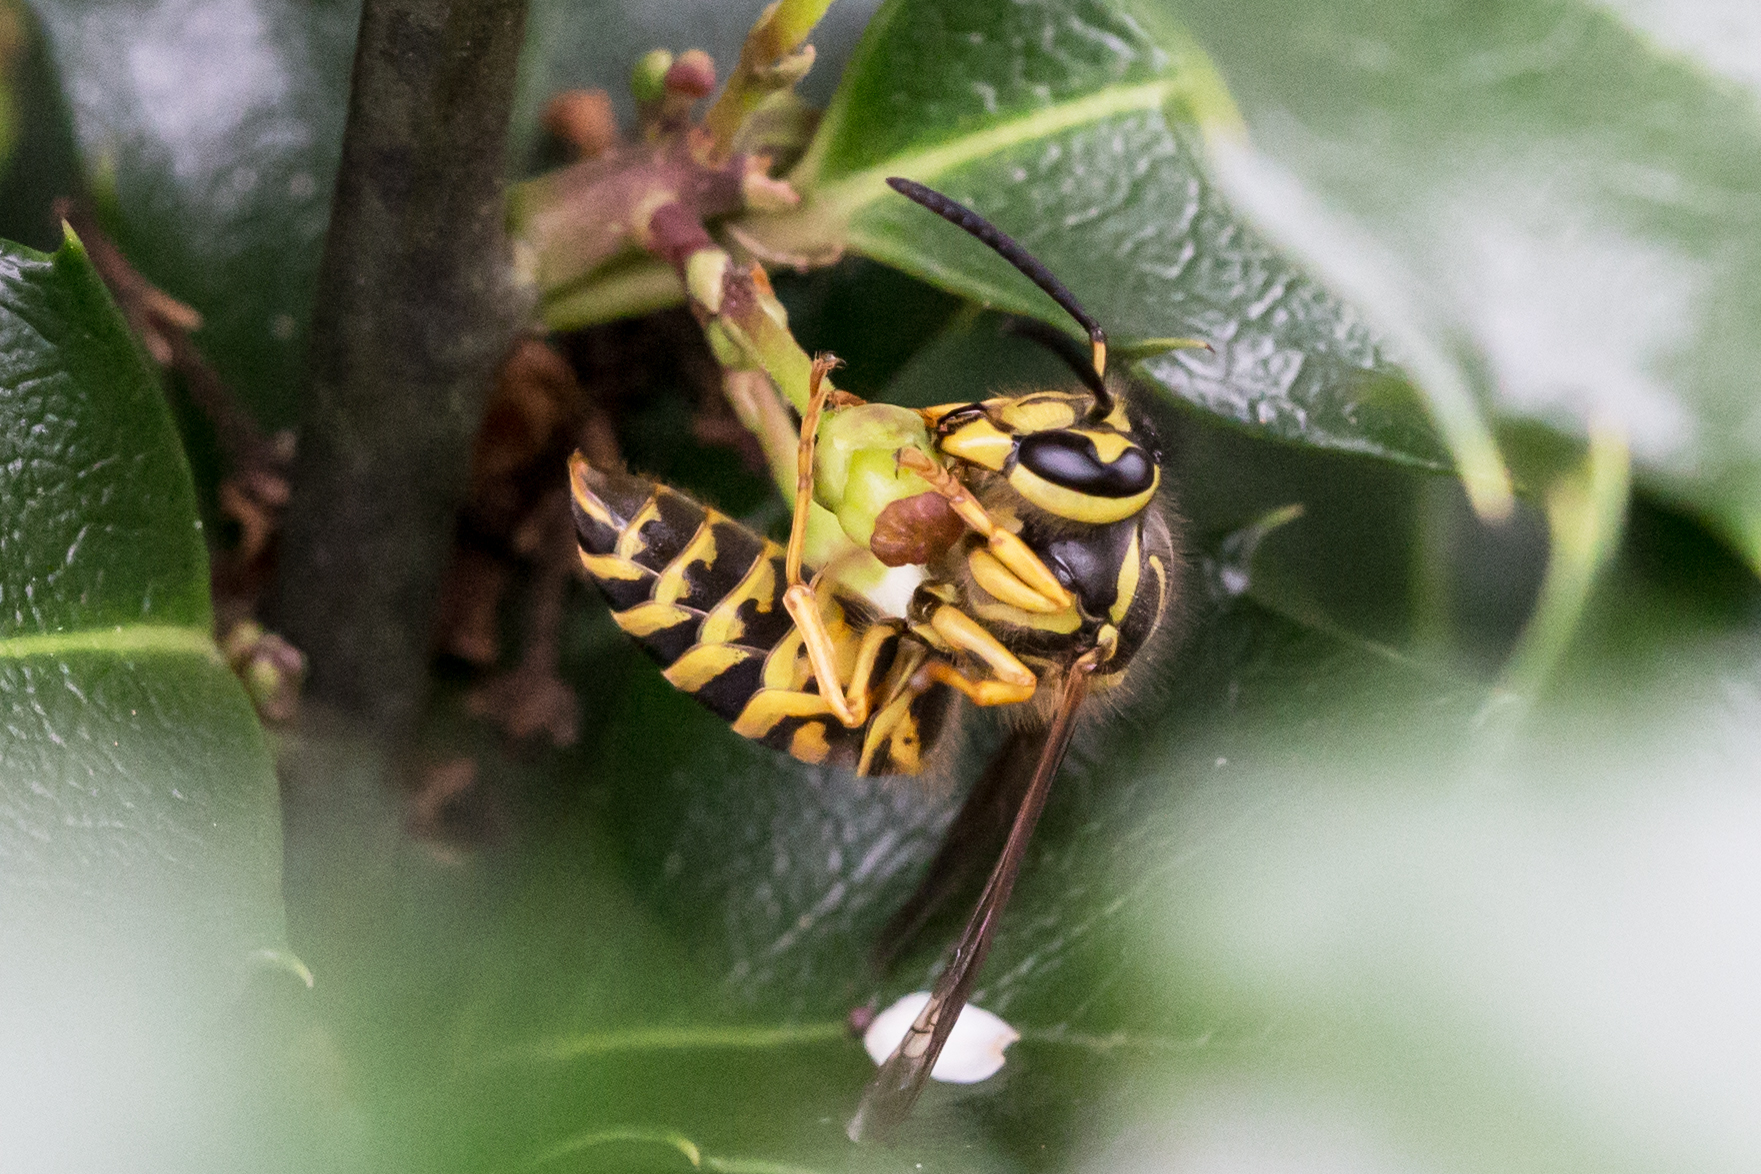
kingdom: Animalia
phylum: Arthropoda
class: Insecta
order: Hymenoptera
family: Vespidae
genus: Vespula
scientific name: Vespula squamosa
